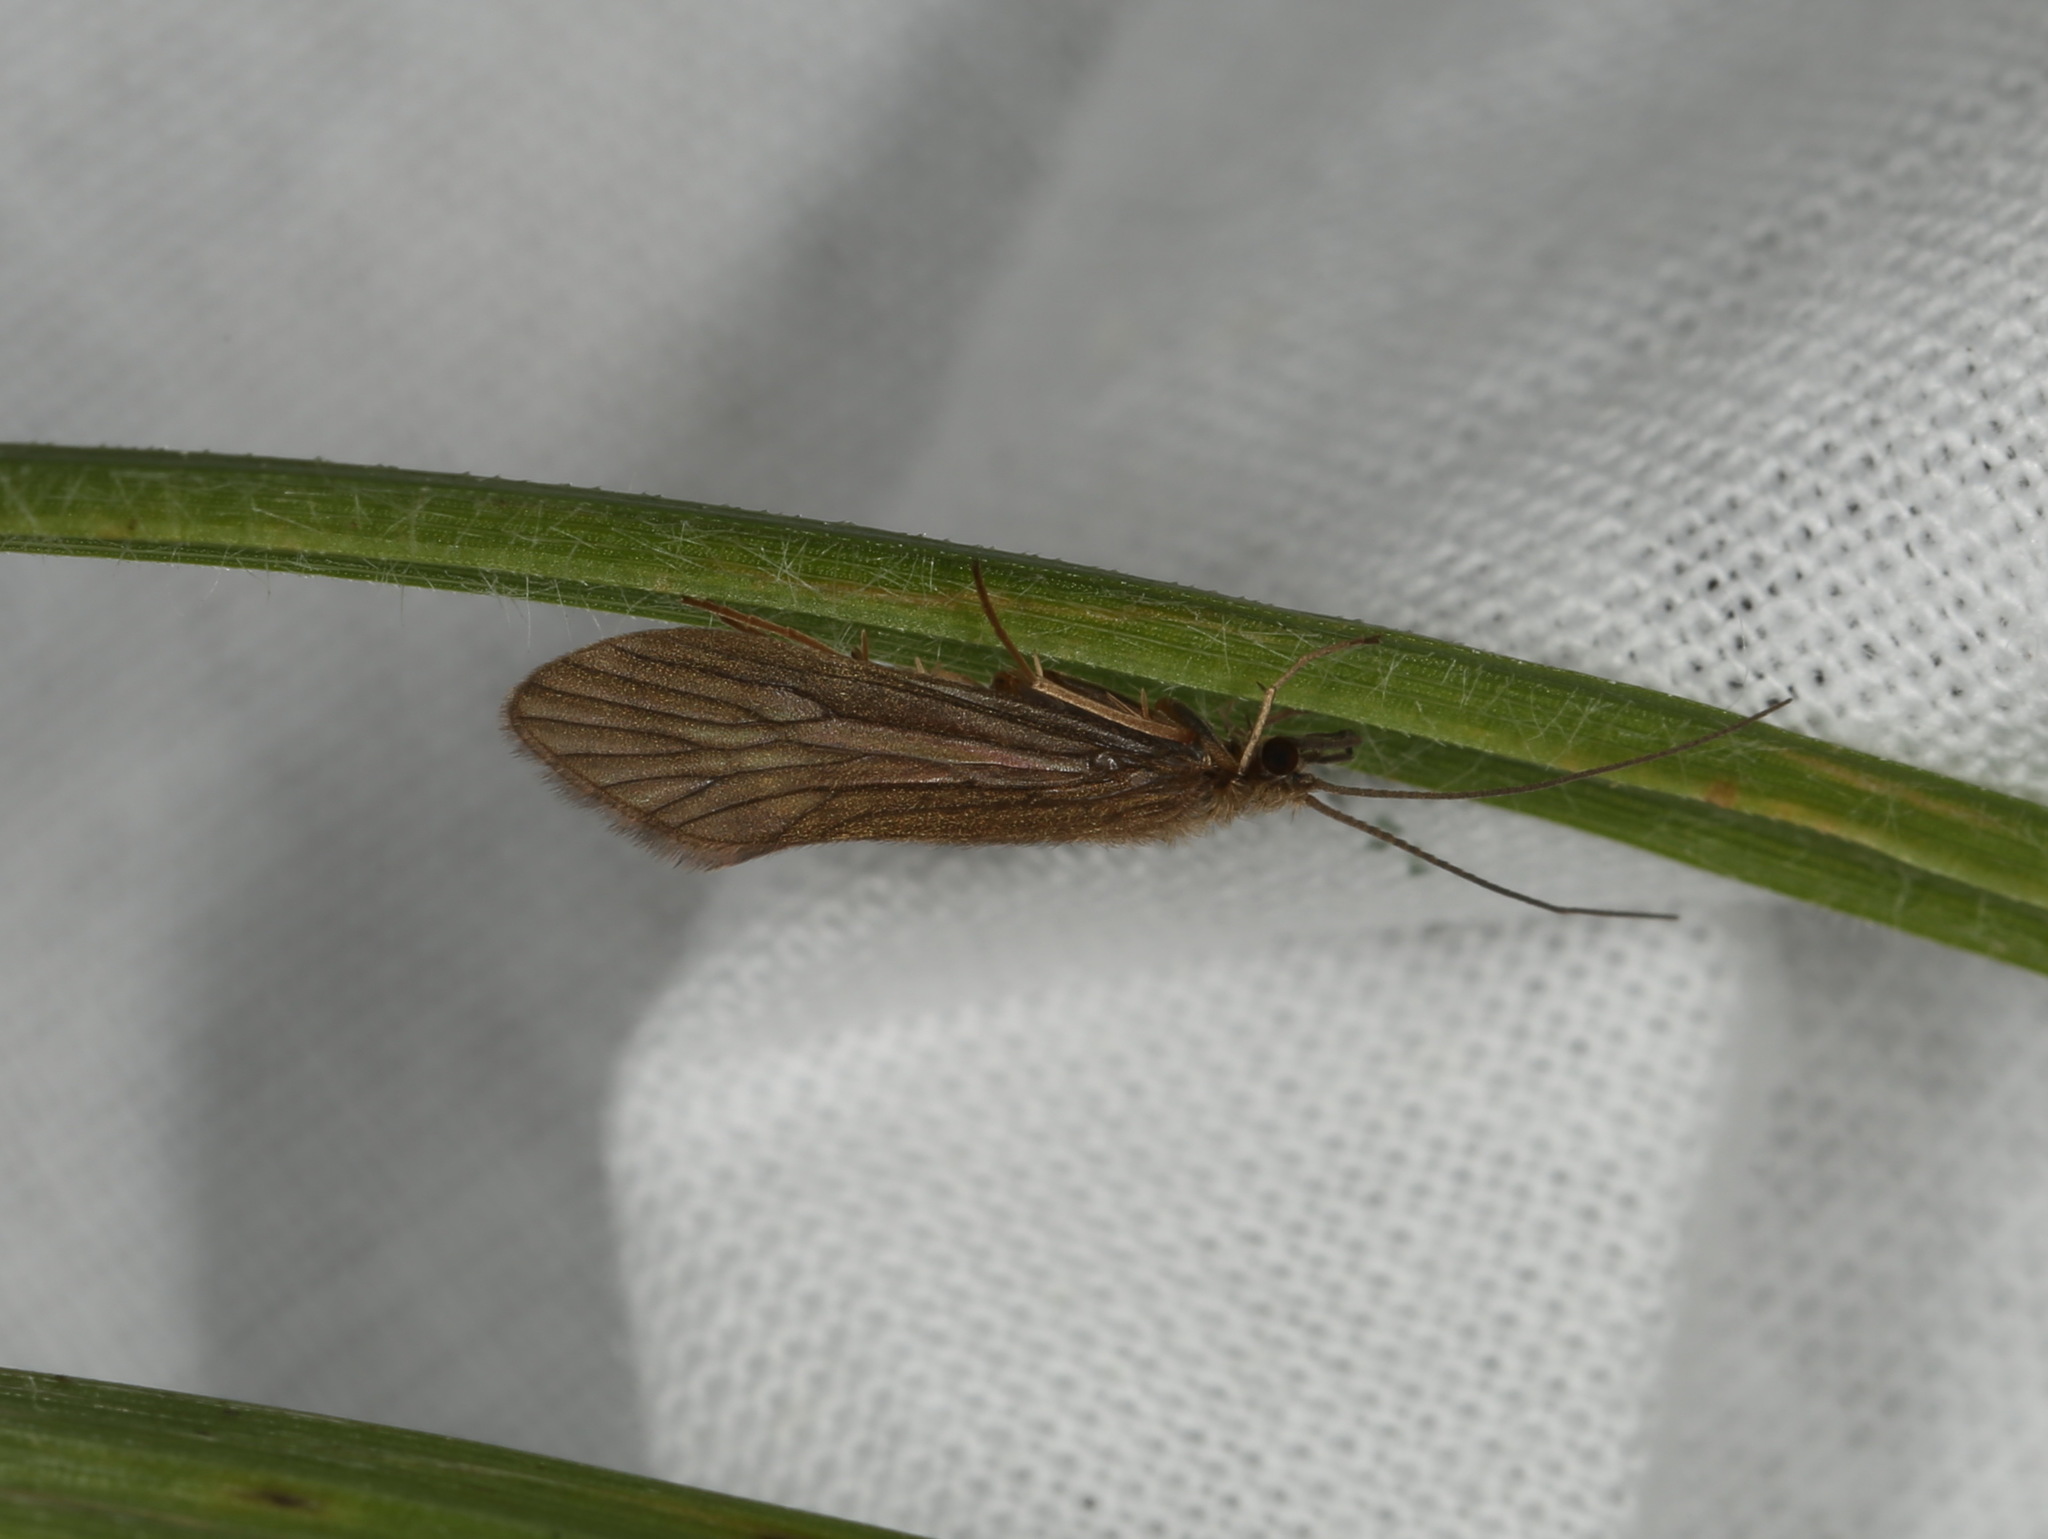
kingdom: Animalia
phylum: Arthropoda
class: Insecta
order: Trichoptera
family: Psychomyiidae
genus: Tinodes
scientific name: Tinodes waeneri
